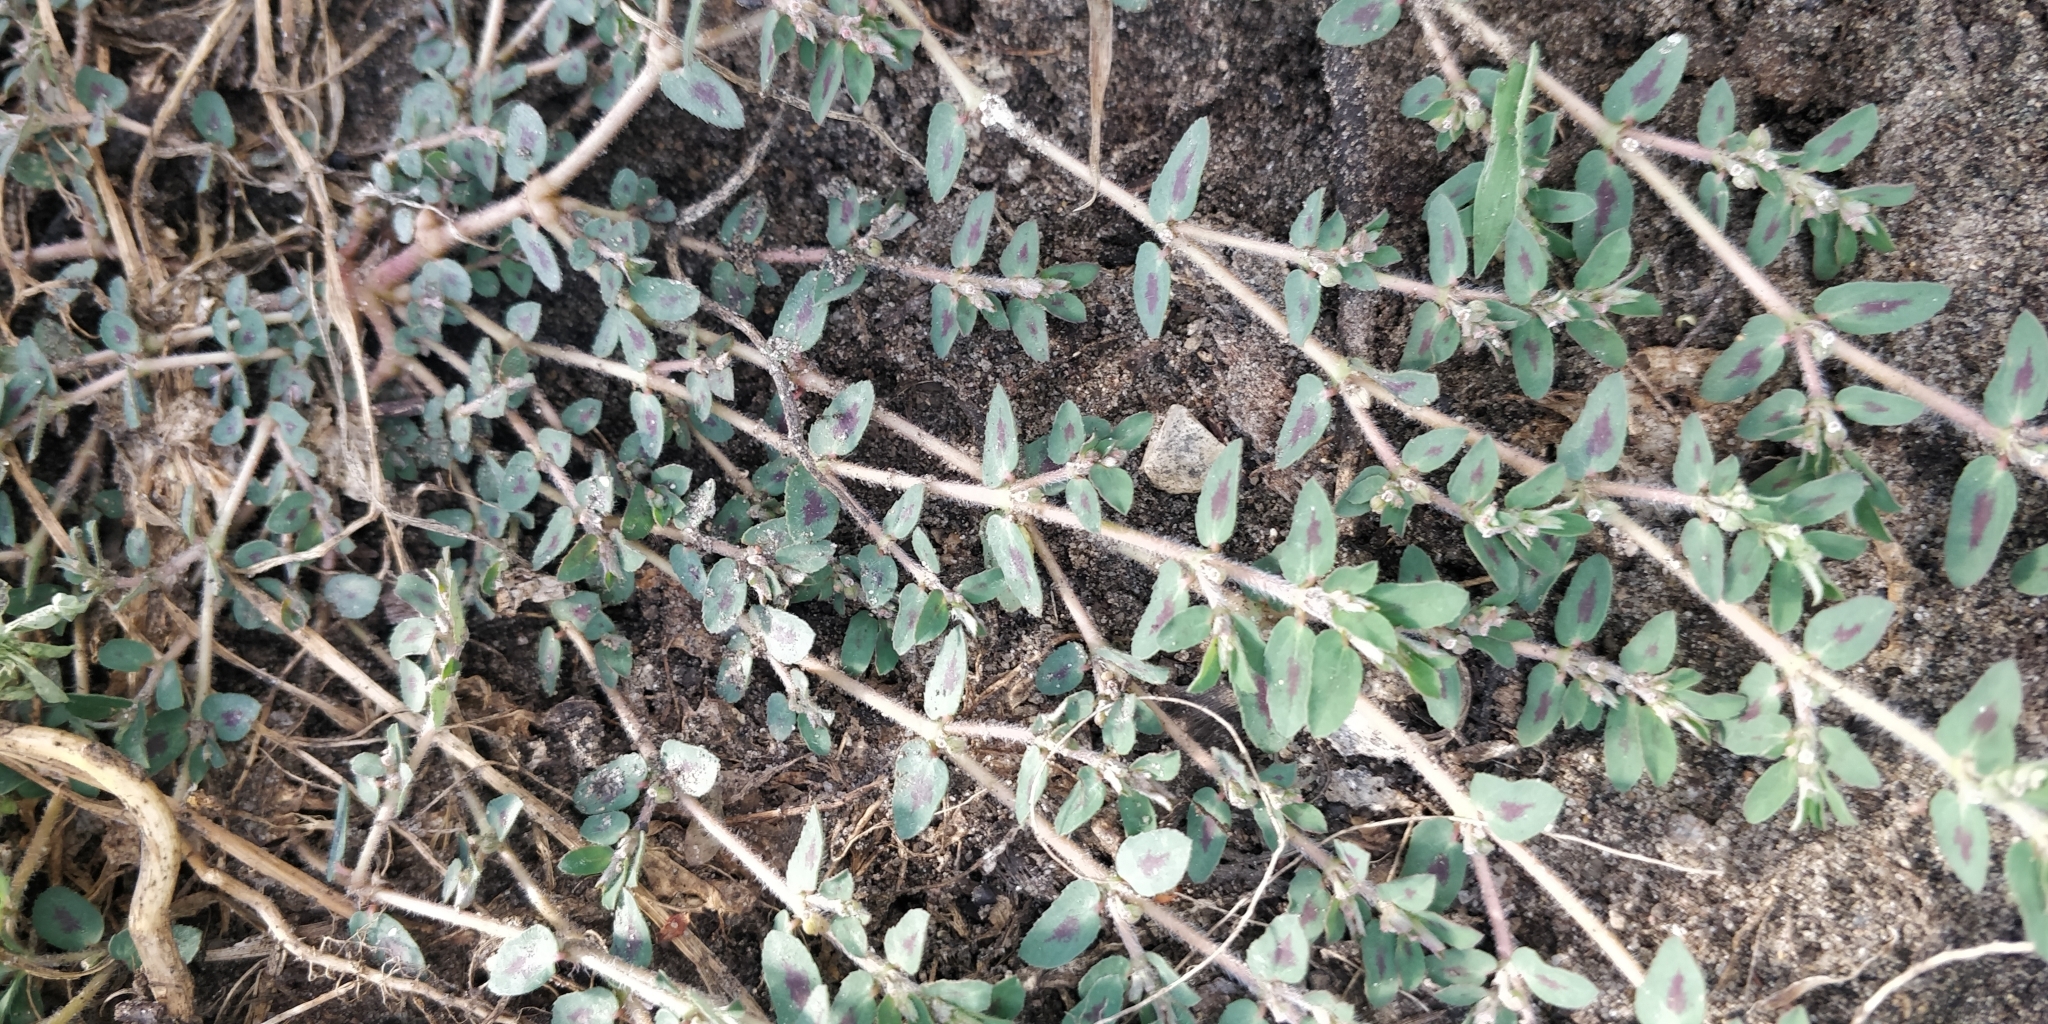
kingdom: Plantae
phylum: Tracheophyta
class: Magnoliopsida
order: Malpighiales
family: Euphorbiaceae
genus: Euphorbia
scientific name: Euphorbia maculata
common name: Spotted spurge
